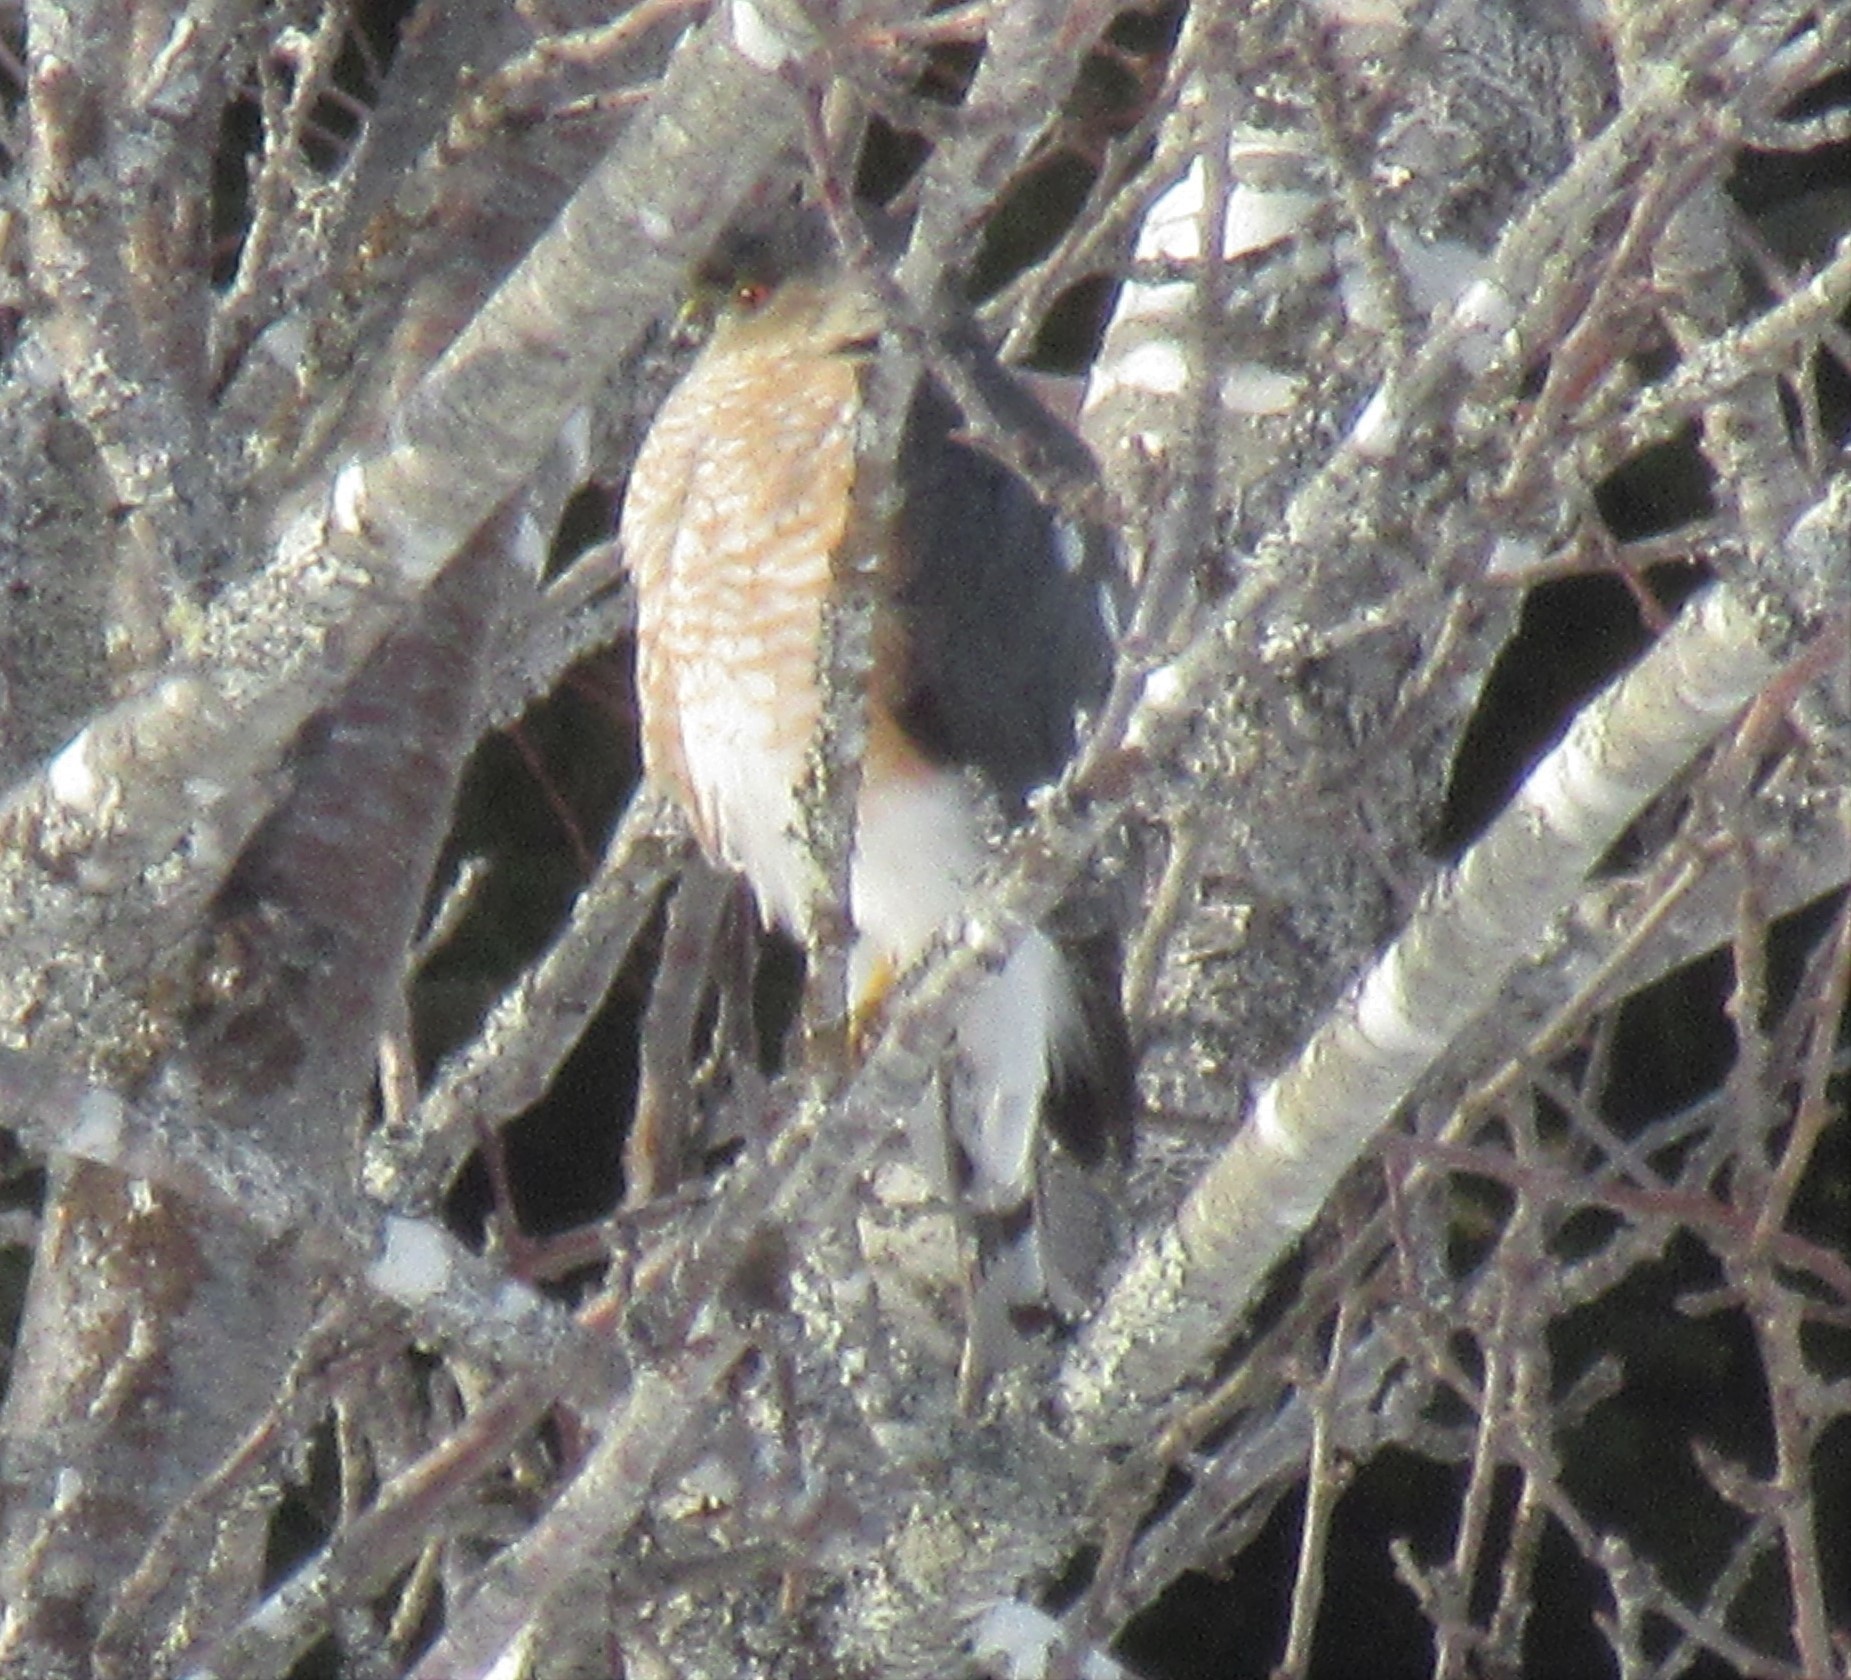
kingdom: Animalia
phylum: Chordata
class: Aves
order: Accipitriformes
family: Accipitridae
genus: Accipiter
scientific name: Accipiter striatus
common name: Sharp-shinned hawk
